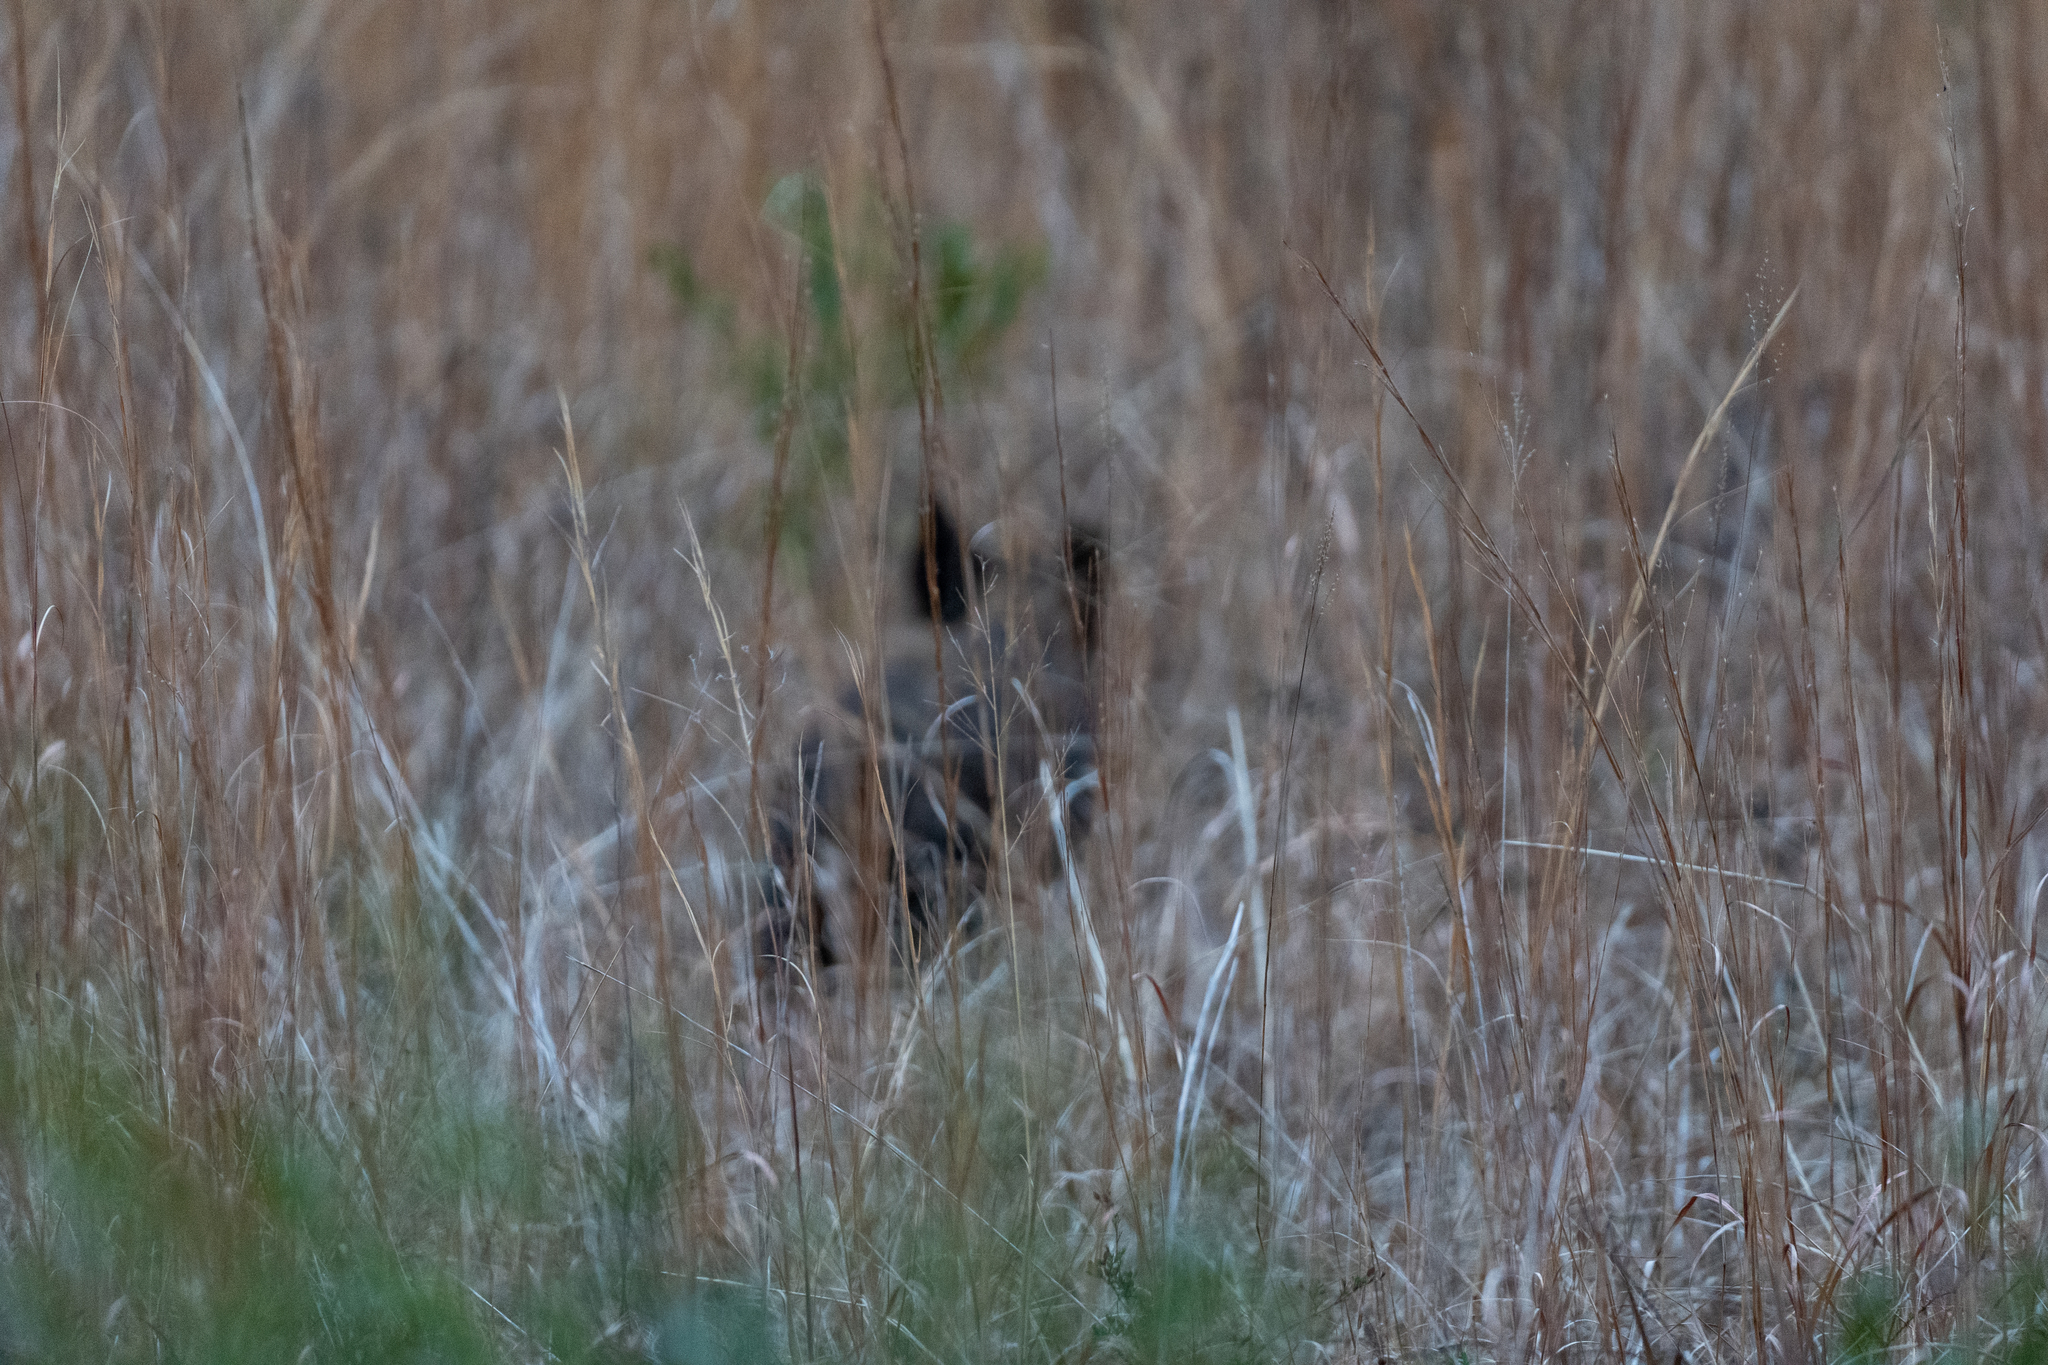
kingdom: Animalia
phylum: Chordata
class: Mammalia
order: Artiodactyla
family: Suidae
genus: Sus
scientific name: Sus scrofa
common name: Wild boar
